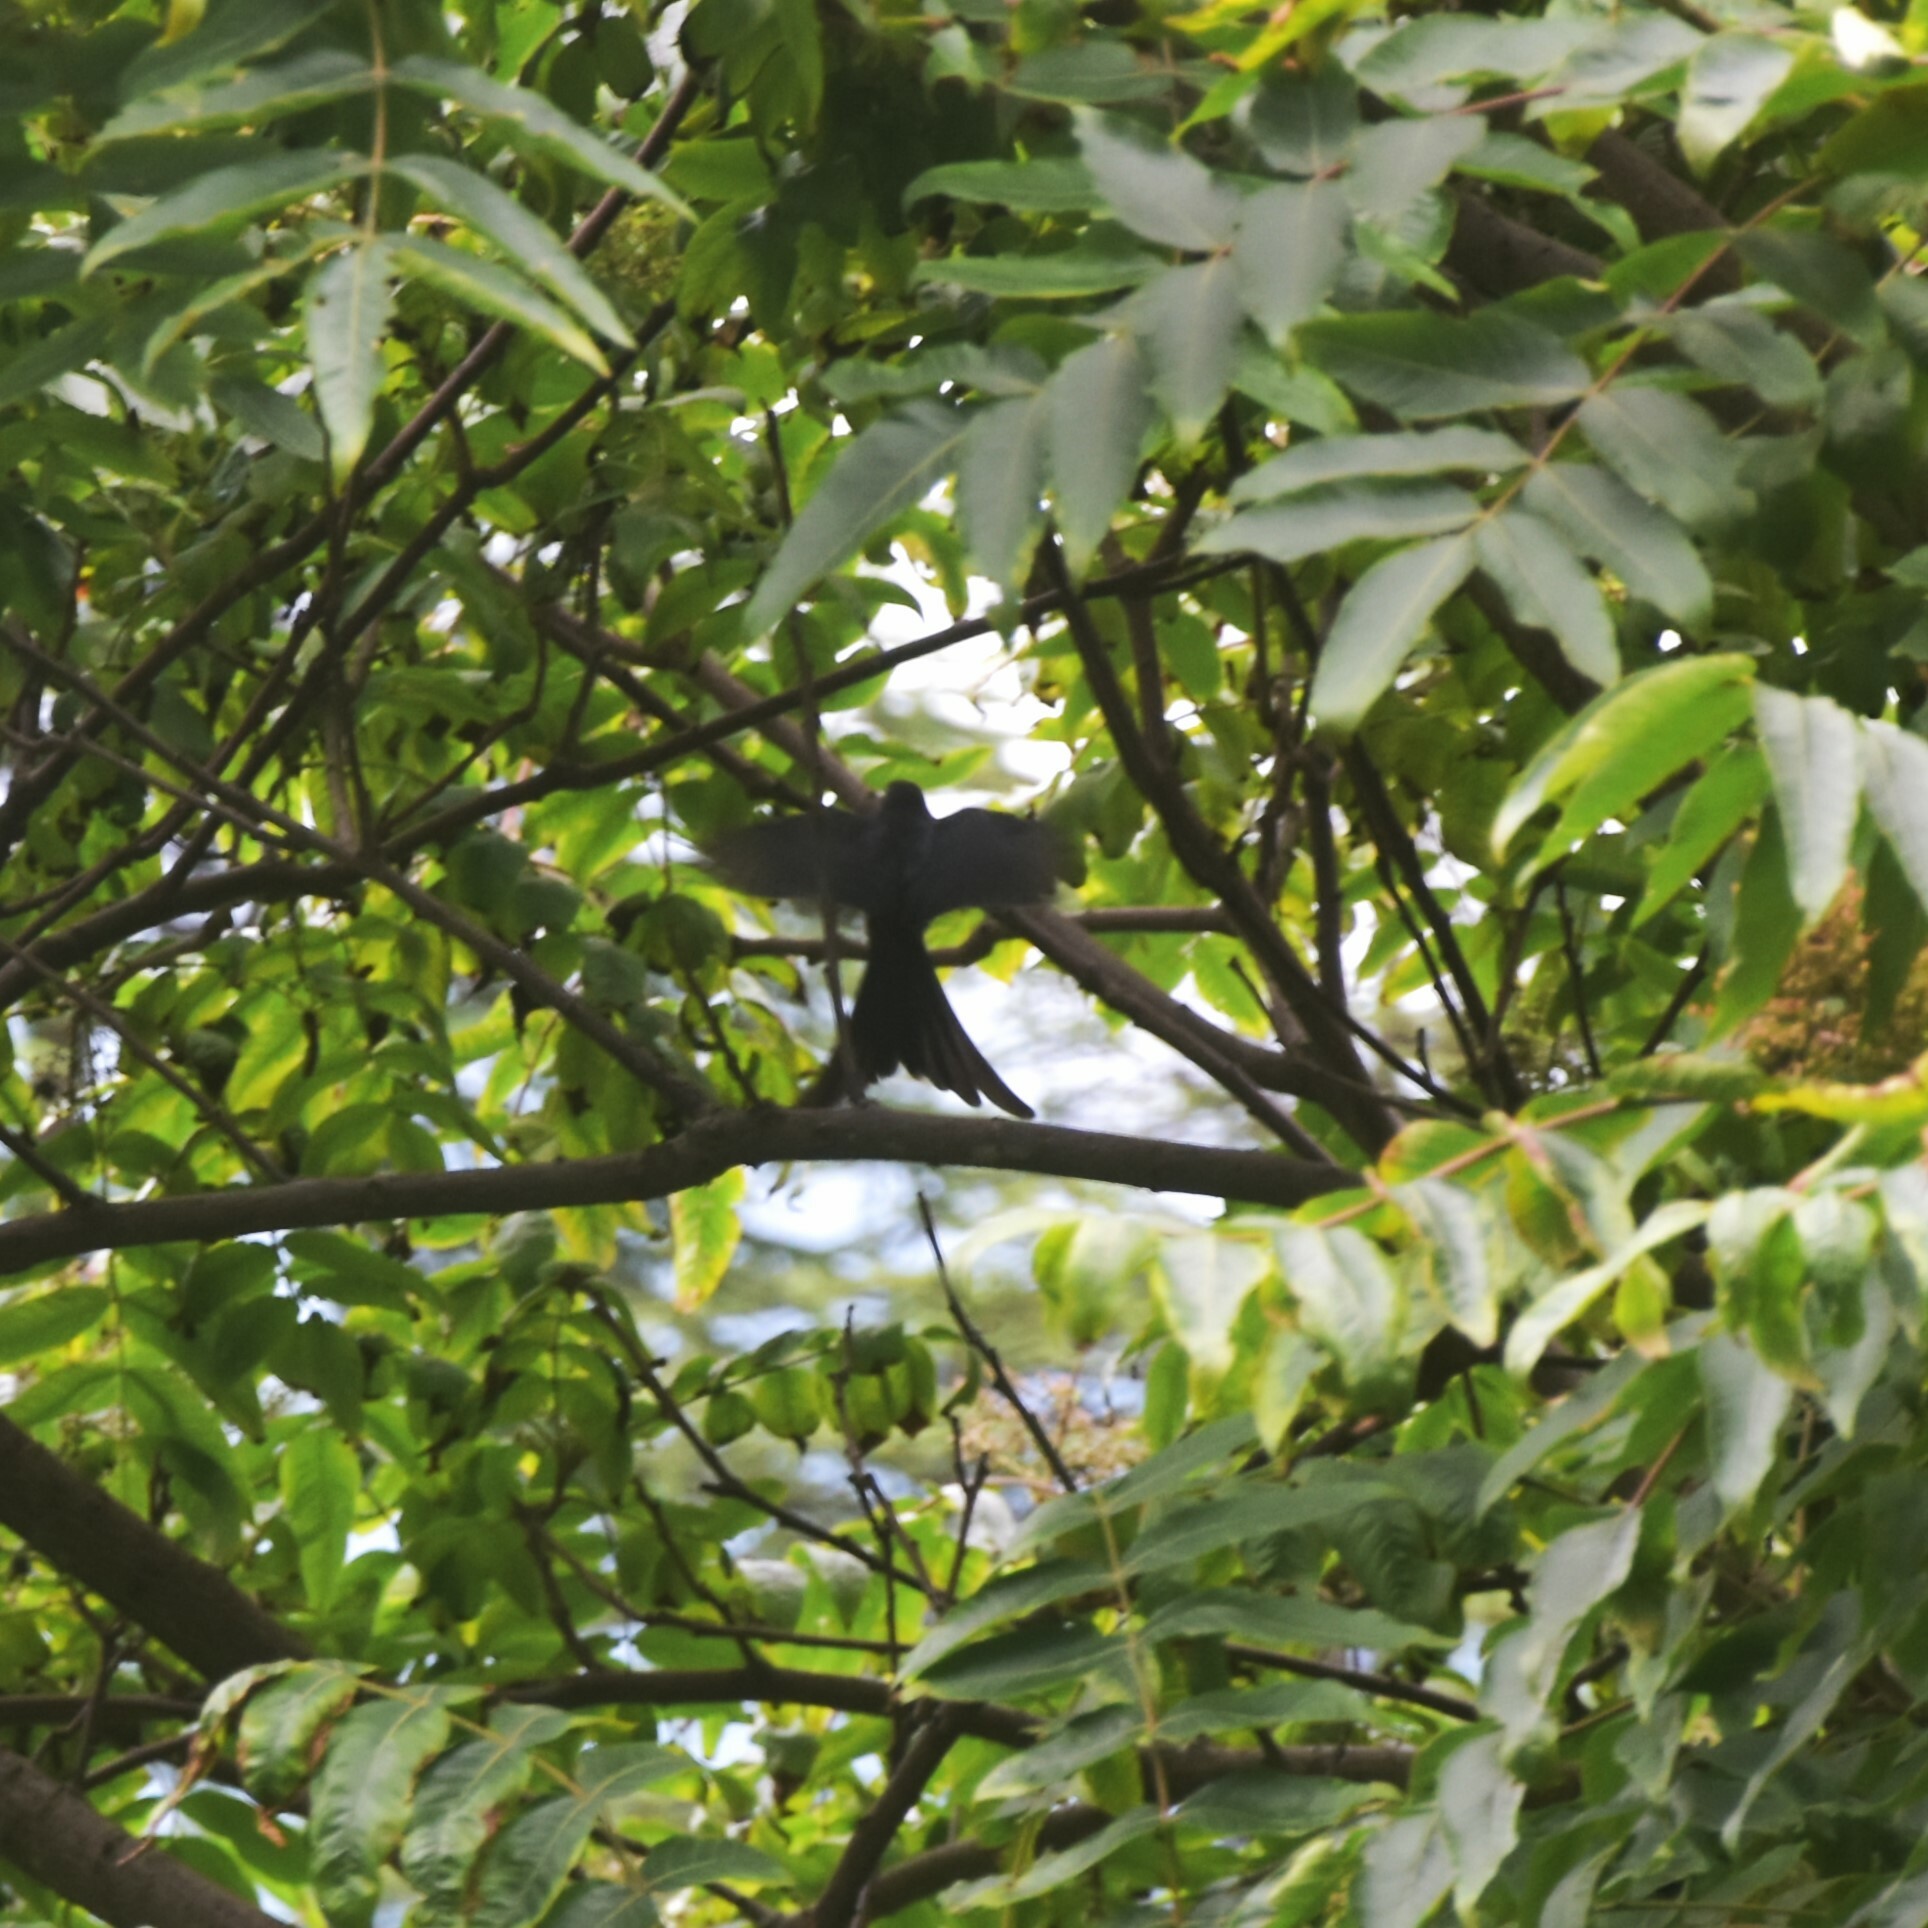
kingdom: Animalia
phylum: Chordata
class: Aves
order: Passeriformes
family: Dicruridae
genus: Dicrurus
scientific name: Dicrurus leucophaeus
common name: Ashy drongo
